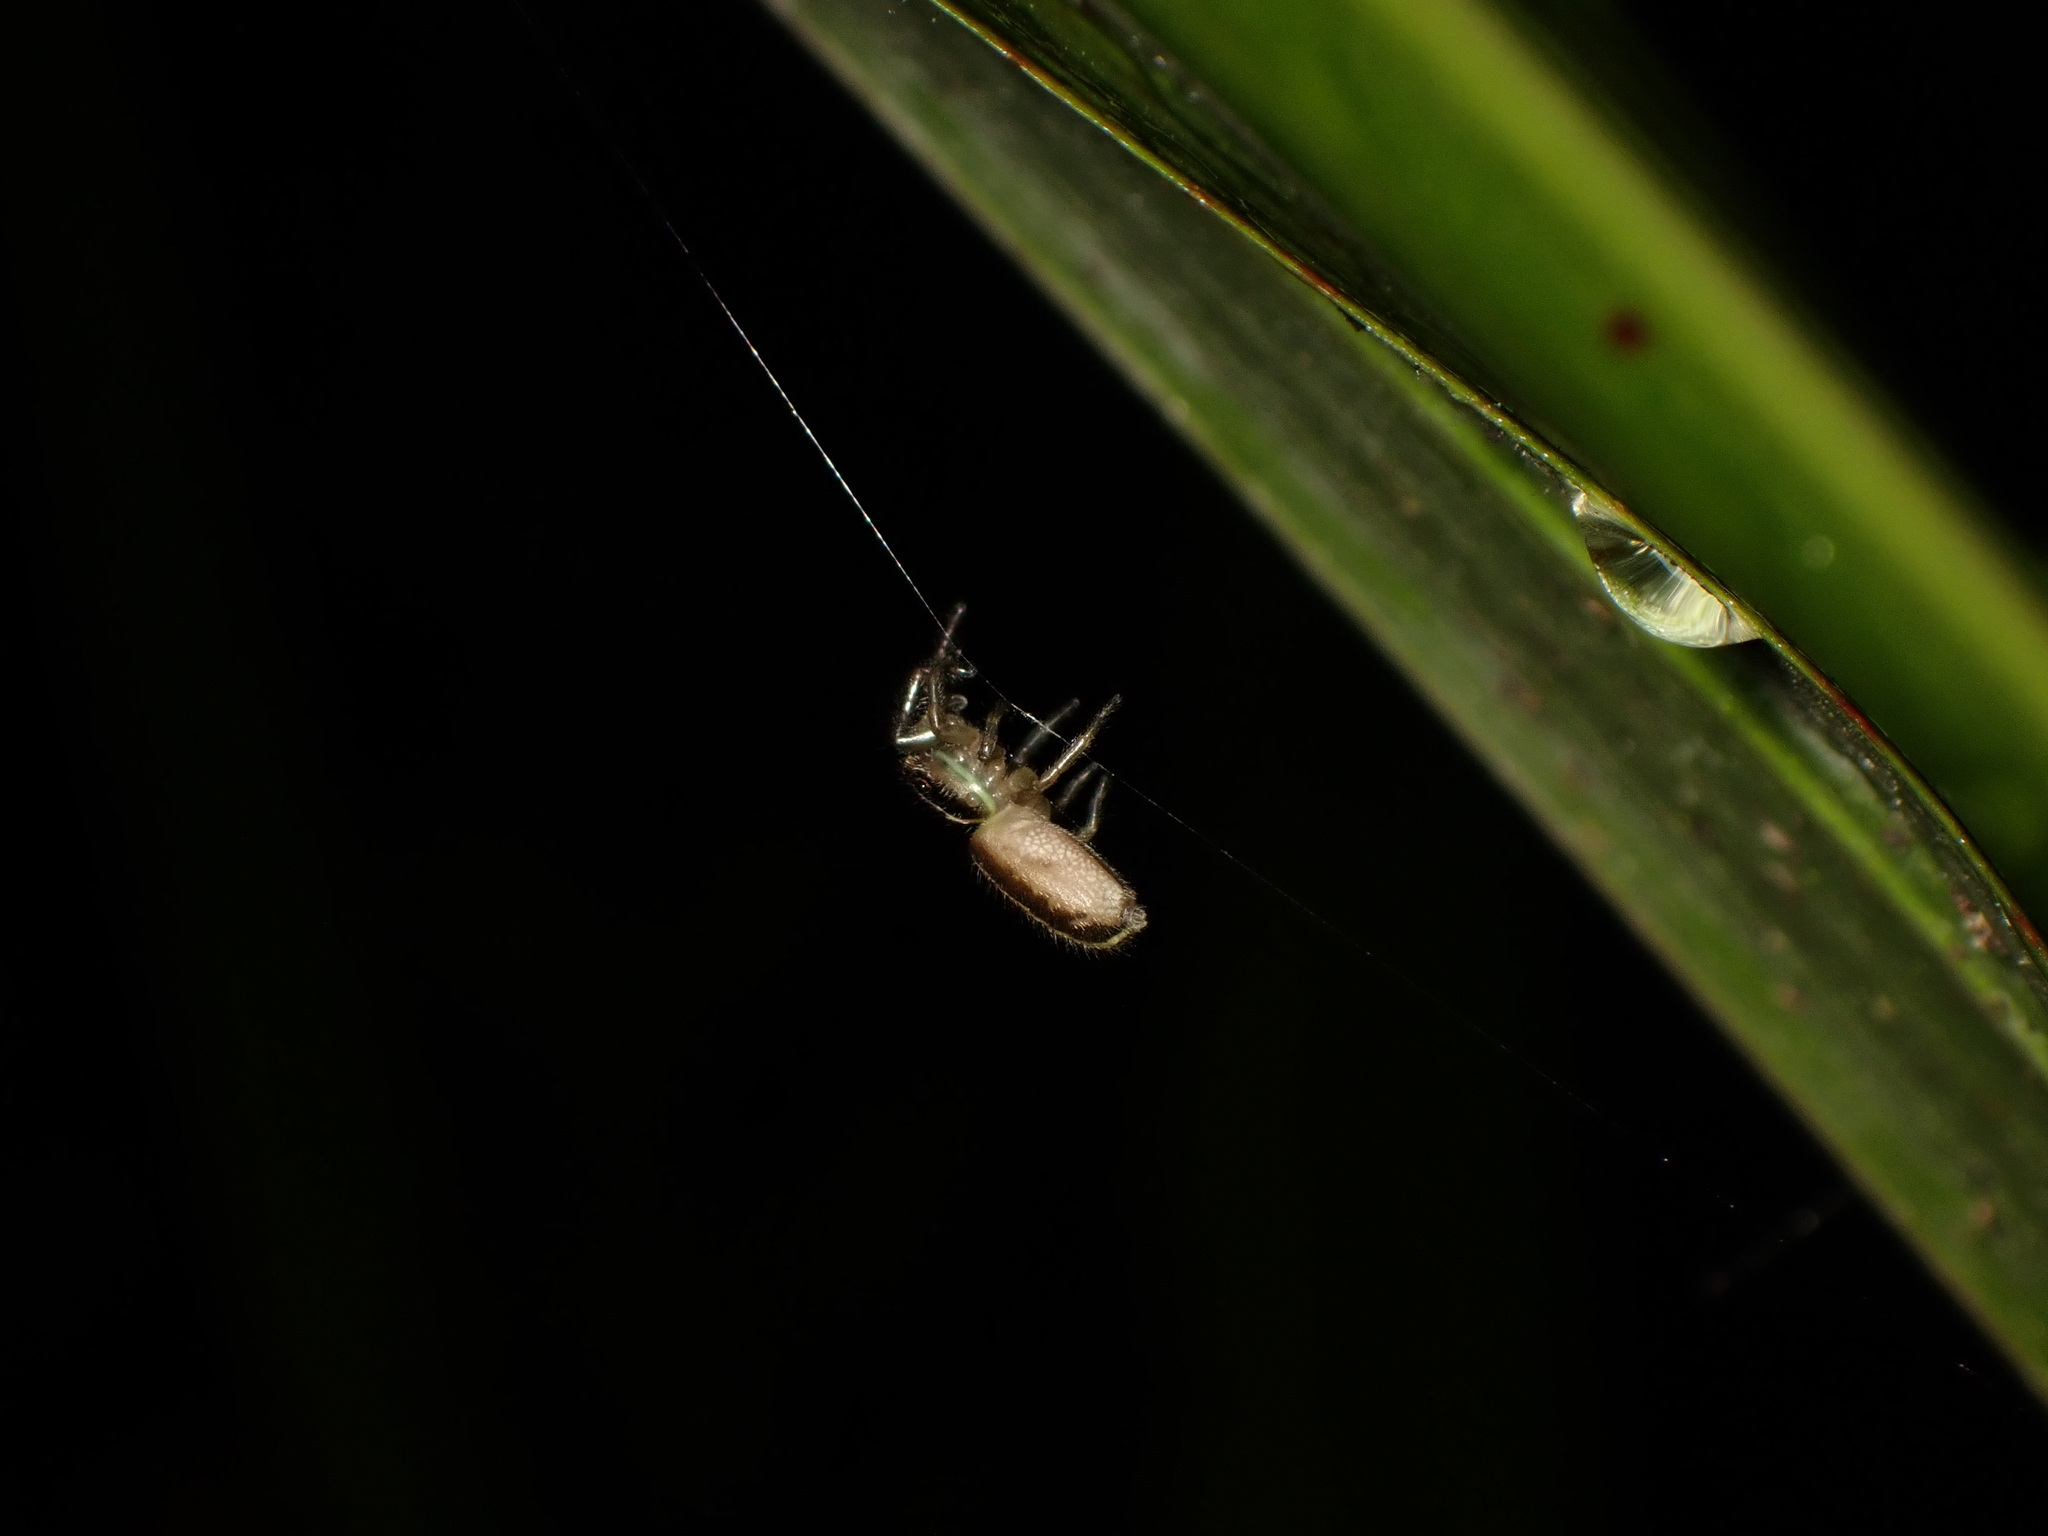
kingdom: Animalia
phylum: Arthropoda
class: Arachnida
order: Araneae
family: Salticidae
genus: Trite
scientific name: Trite planiceps
